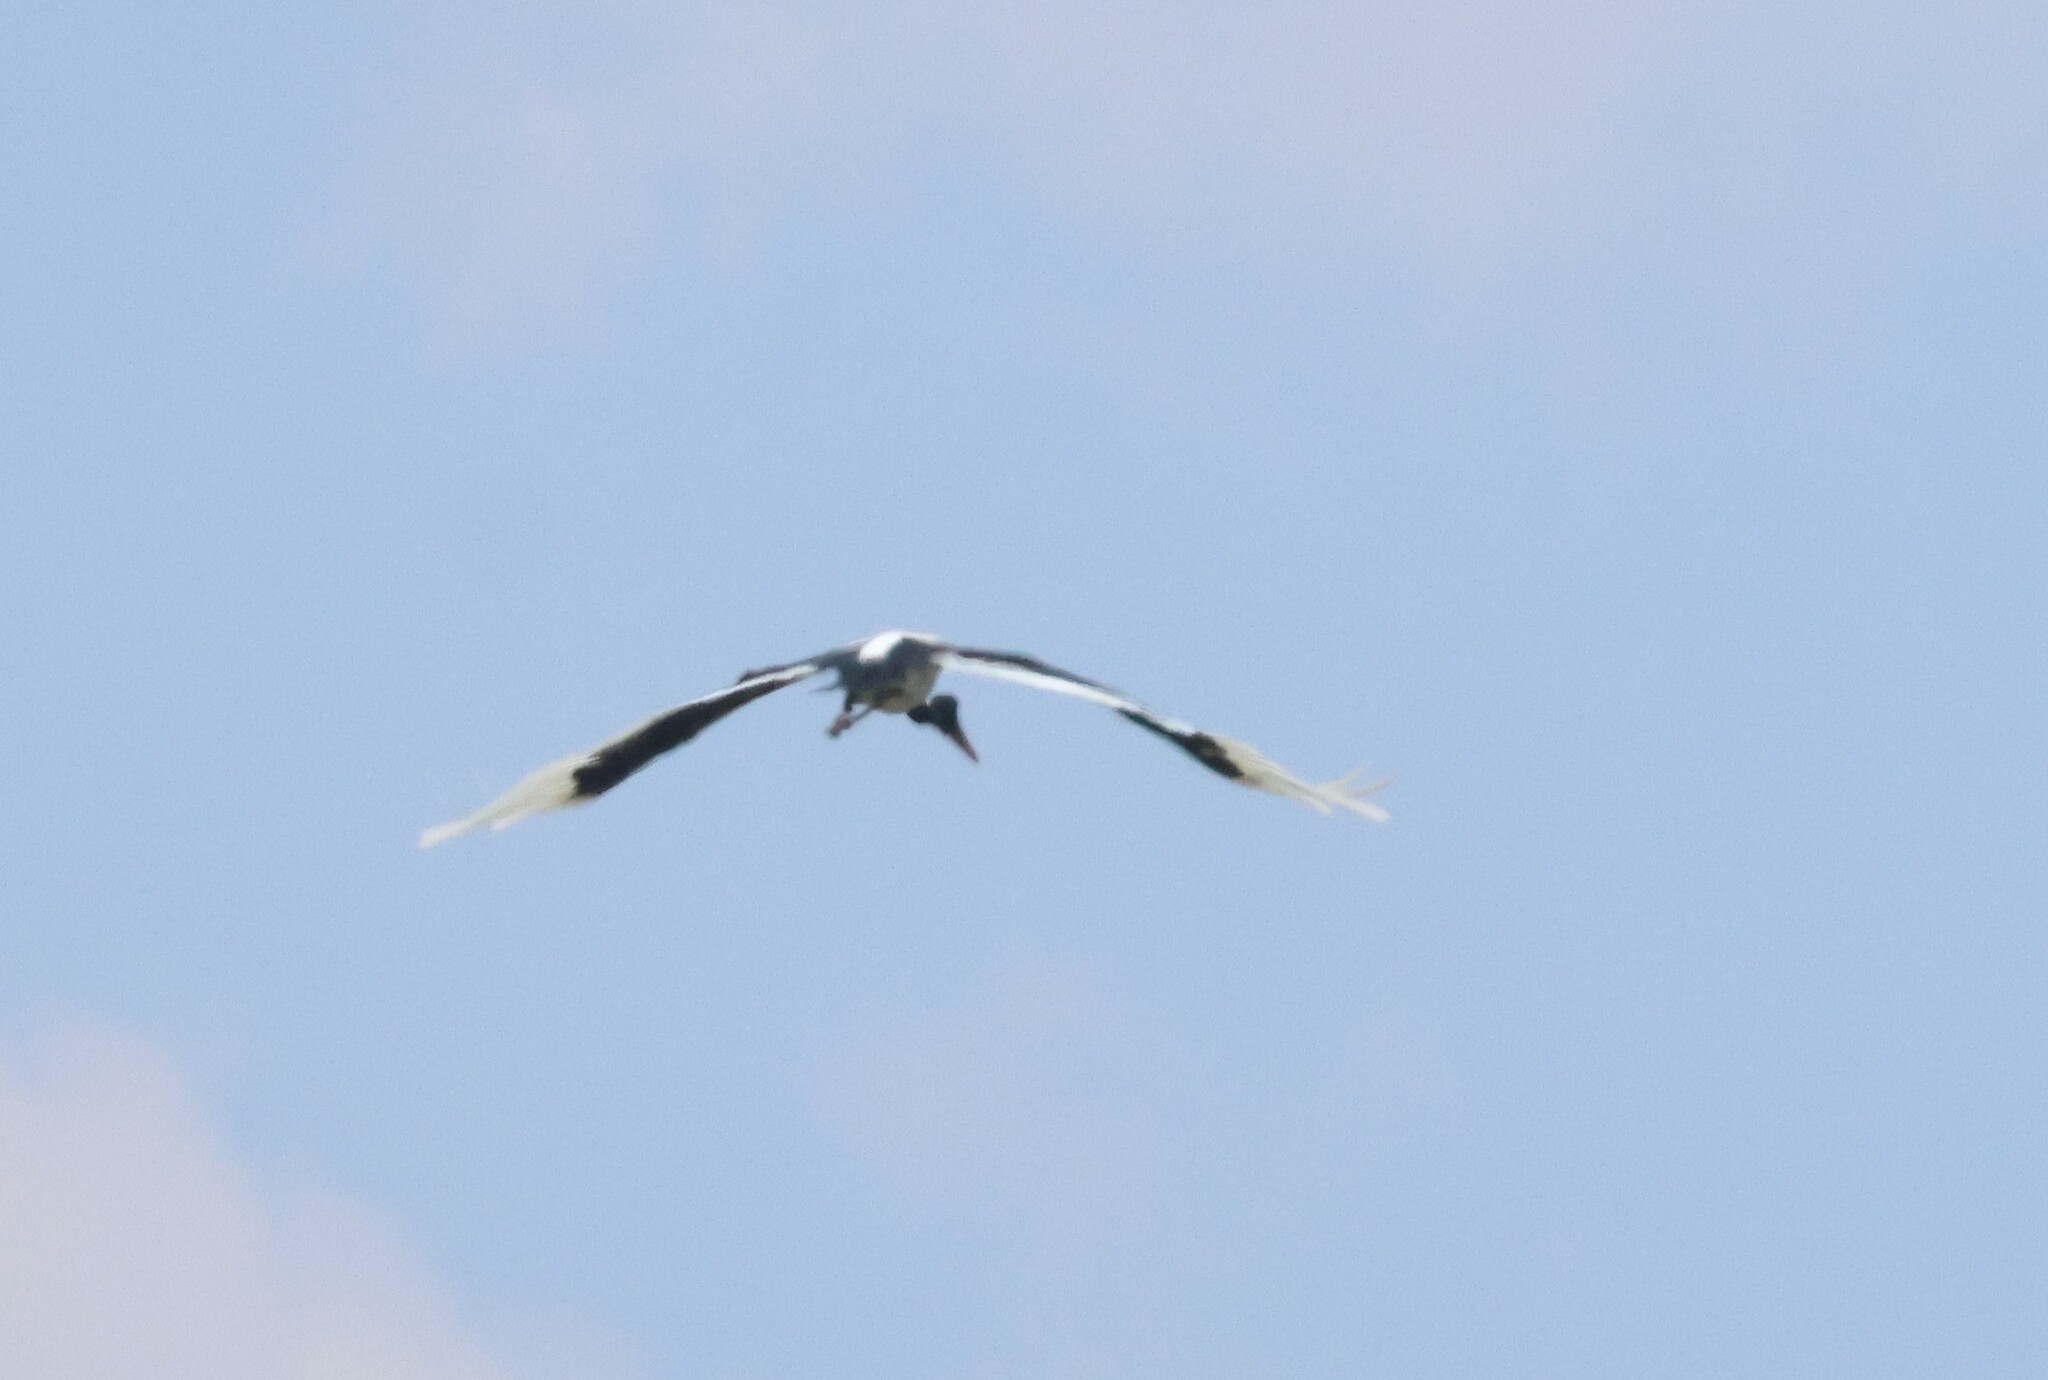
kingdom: Animalia
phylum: Chordata
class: Aves
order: Ciconiiformes
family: Ciconiidae
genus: Ephippiorhynchus
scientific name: Ephippiorhynchus senegalensis
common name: Saddle-billed stork
